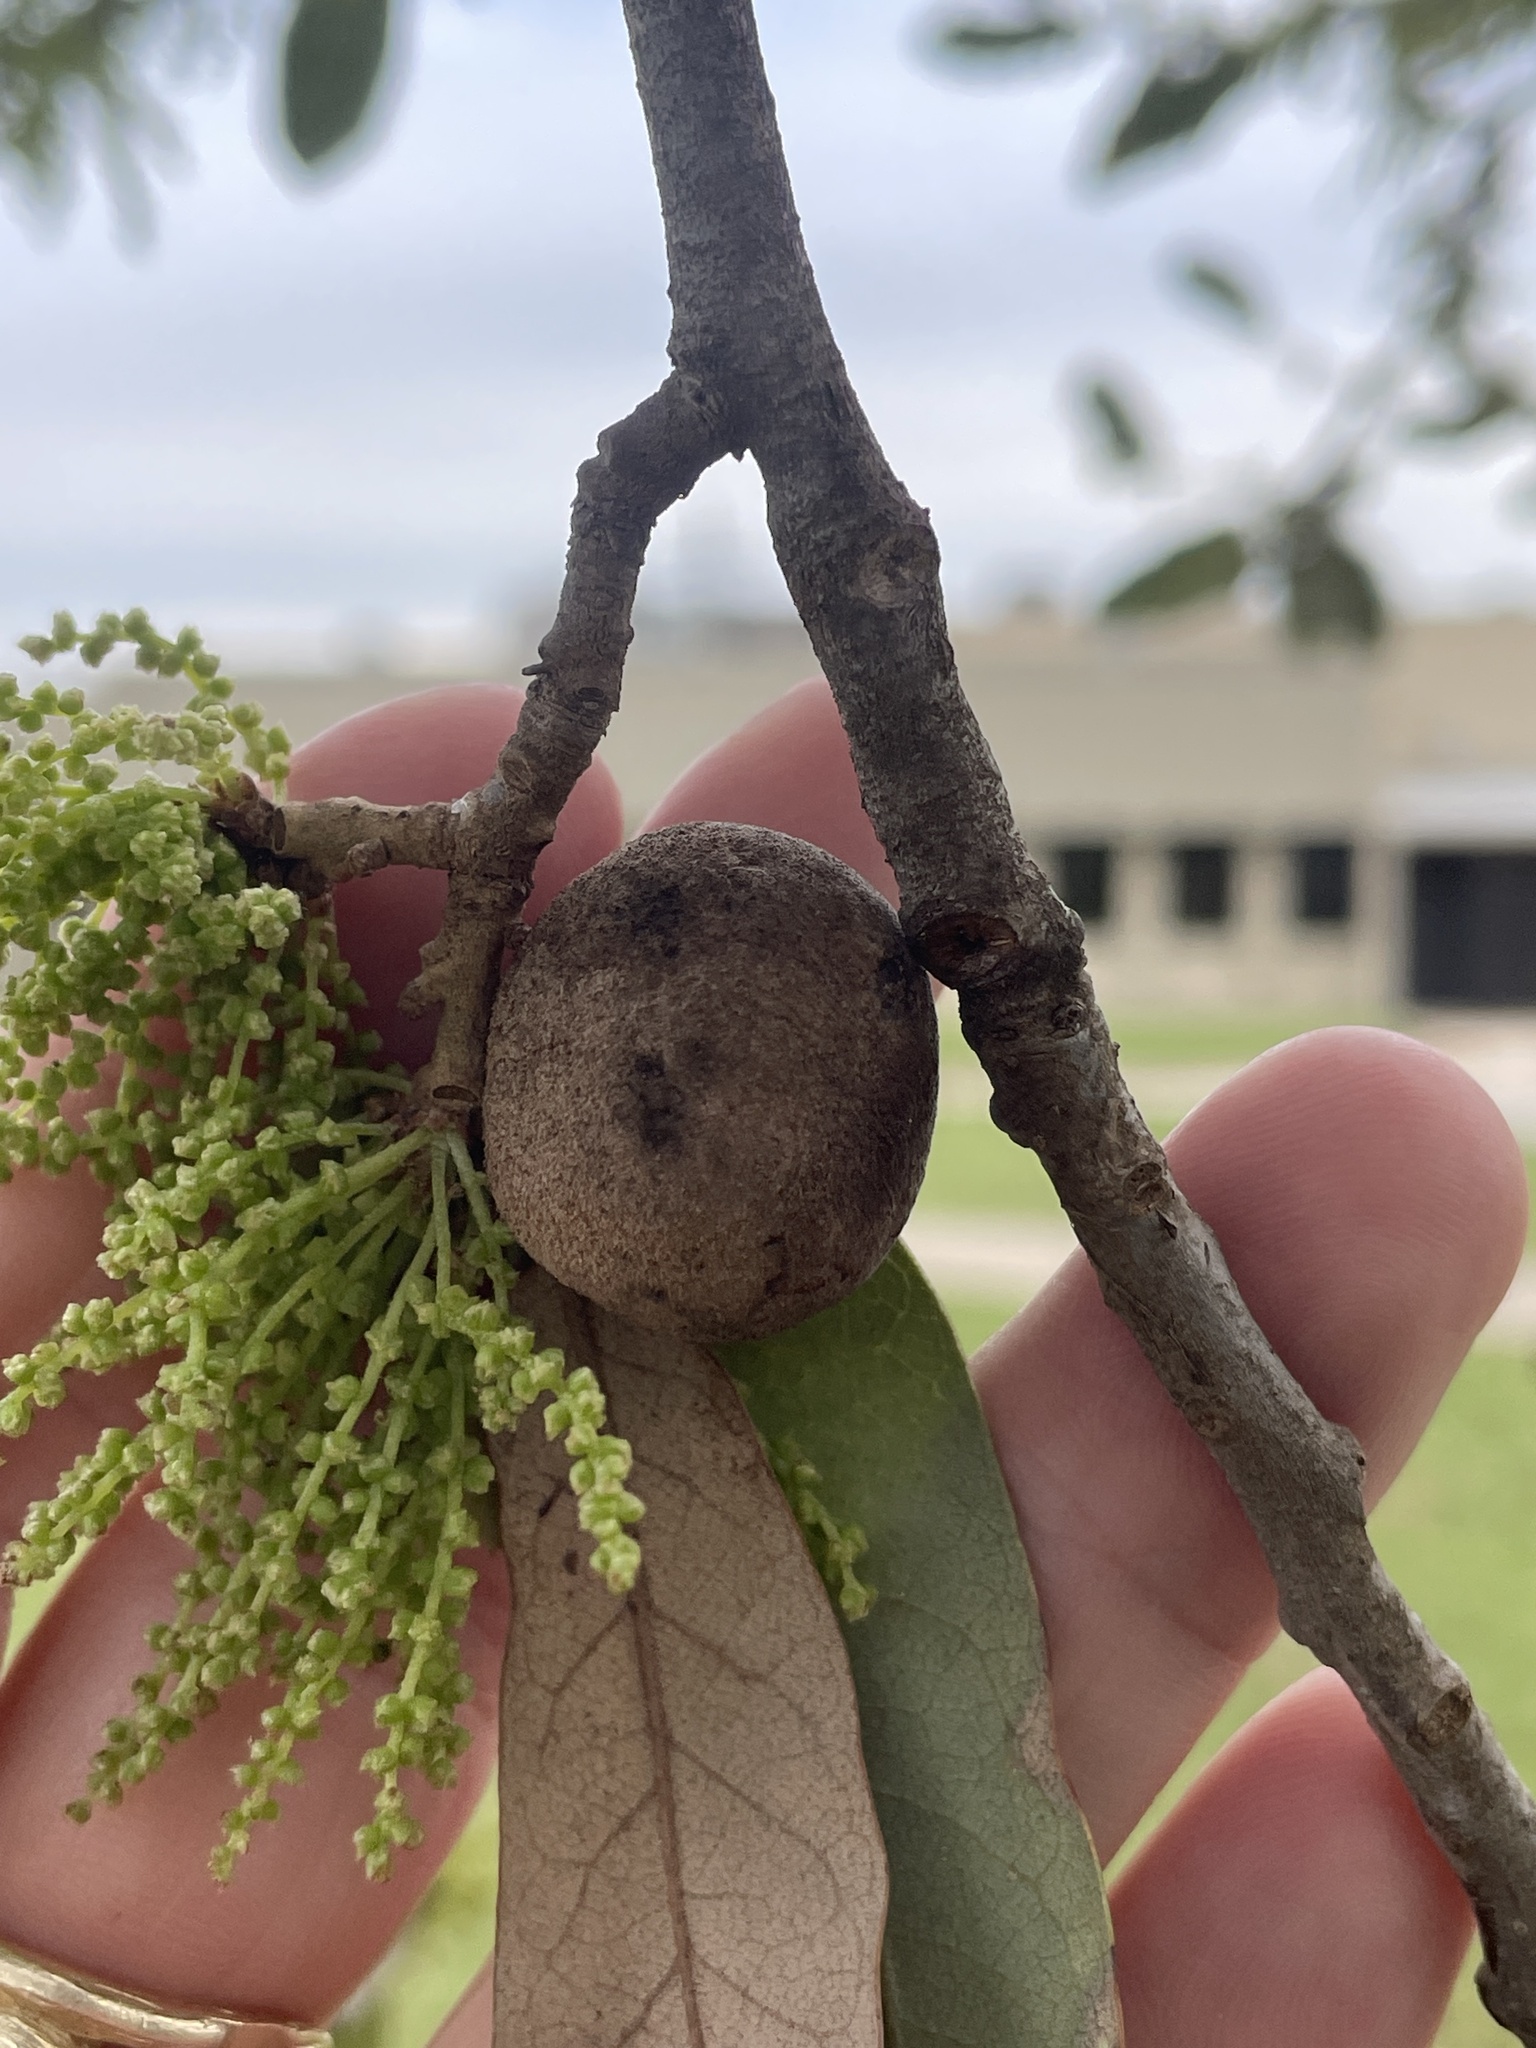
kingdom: Animalia
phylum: Arthropoda
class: Insecta
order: Hymenoptera
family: Cynipidae
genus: Disholcaspis
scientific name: Disholcaspis
